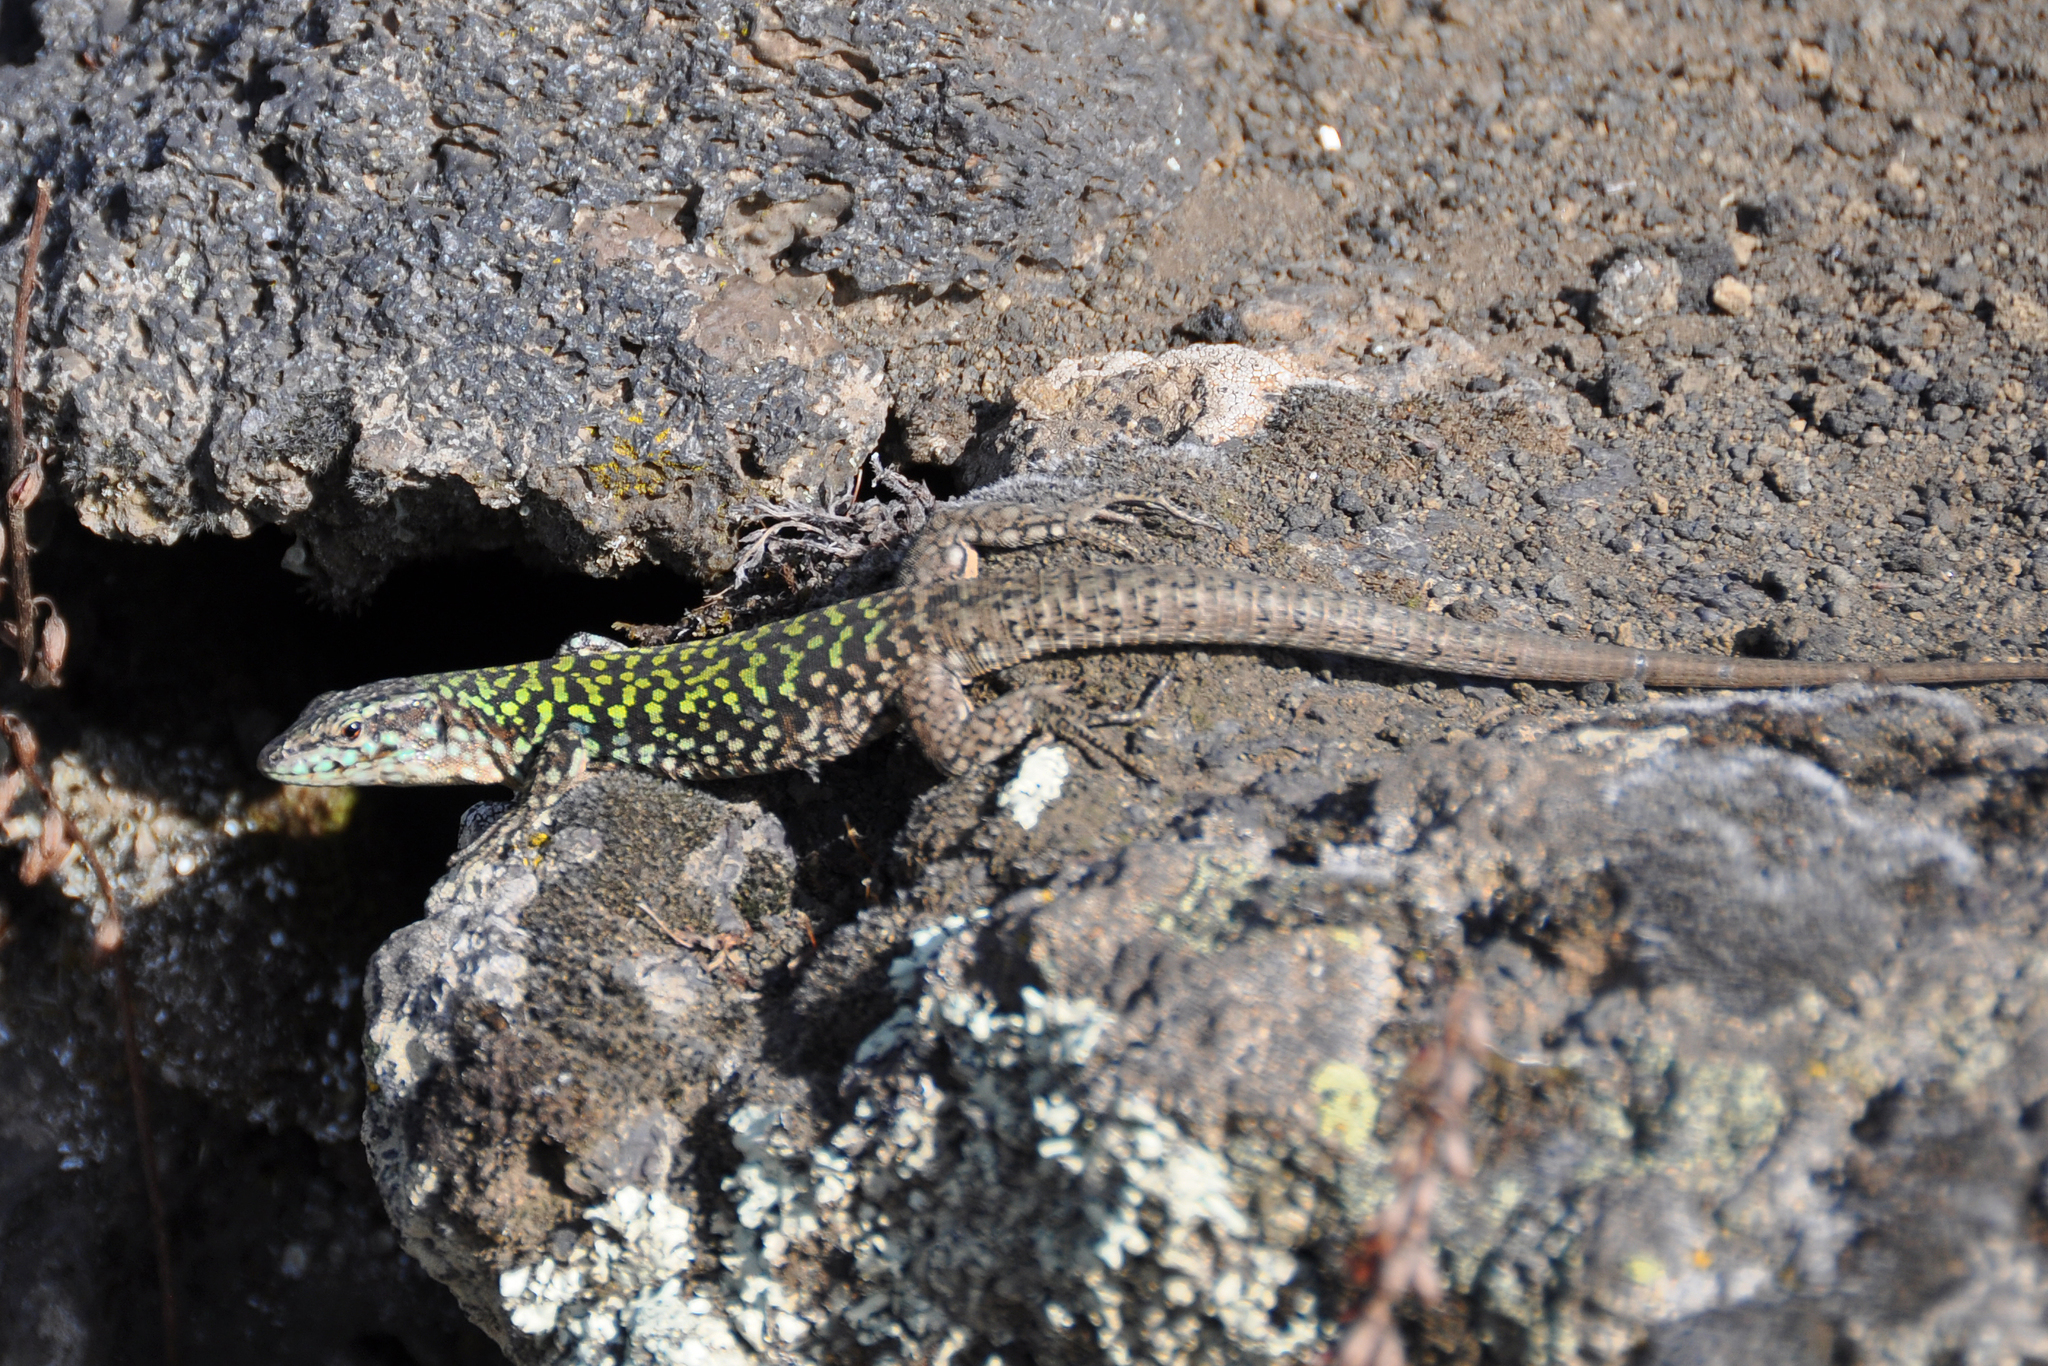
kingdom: Animalia
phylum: Chordata
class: Squamata
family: Lacertidae
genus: Podarcis
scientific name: Podarcis siculus
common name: Italian wall lizard
